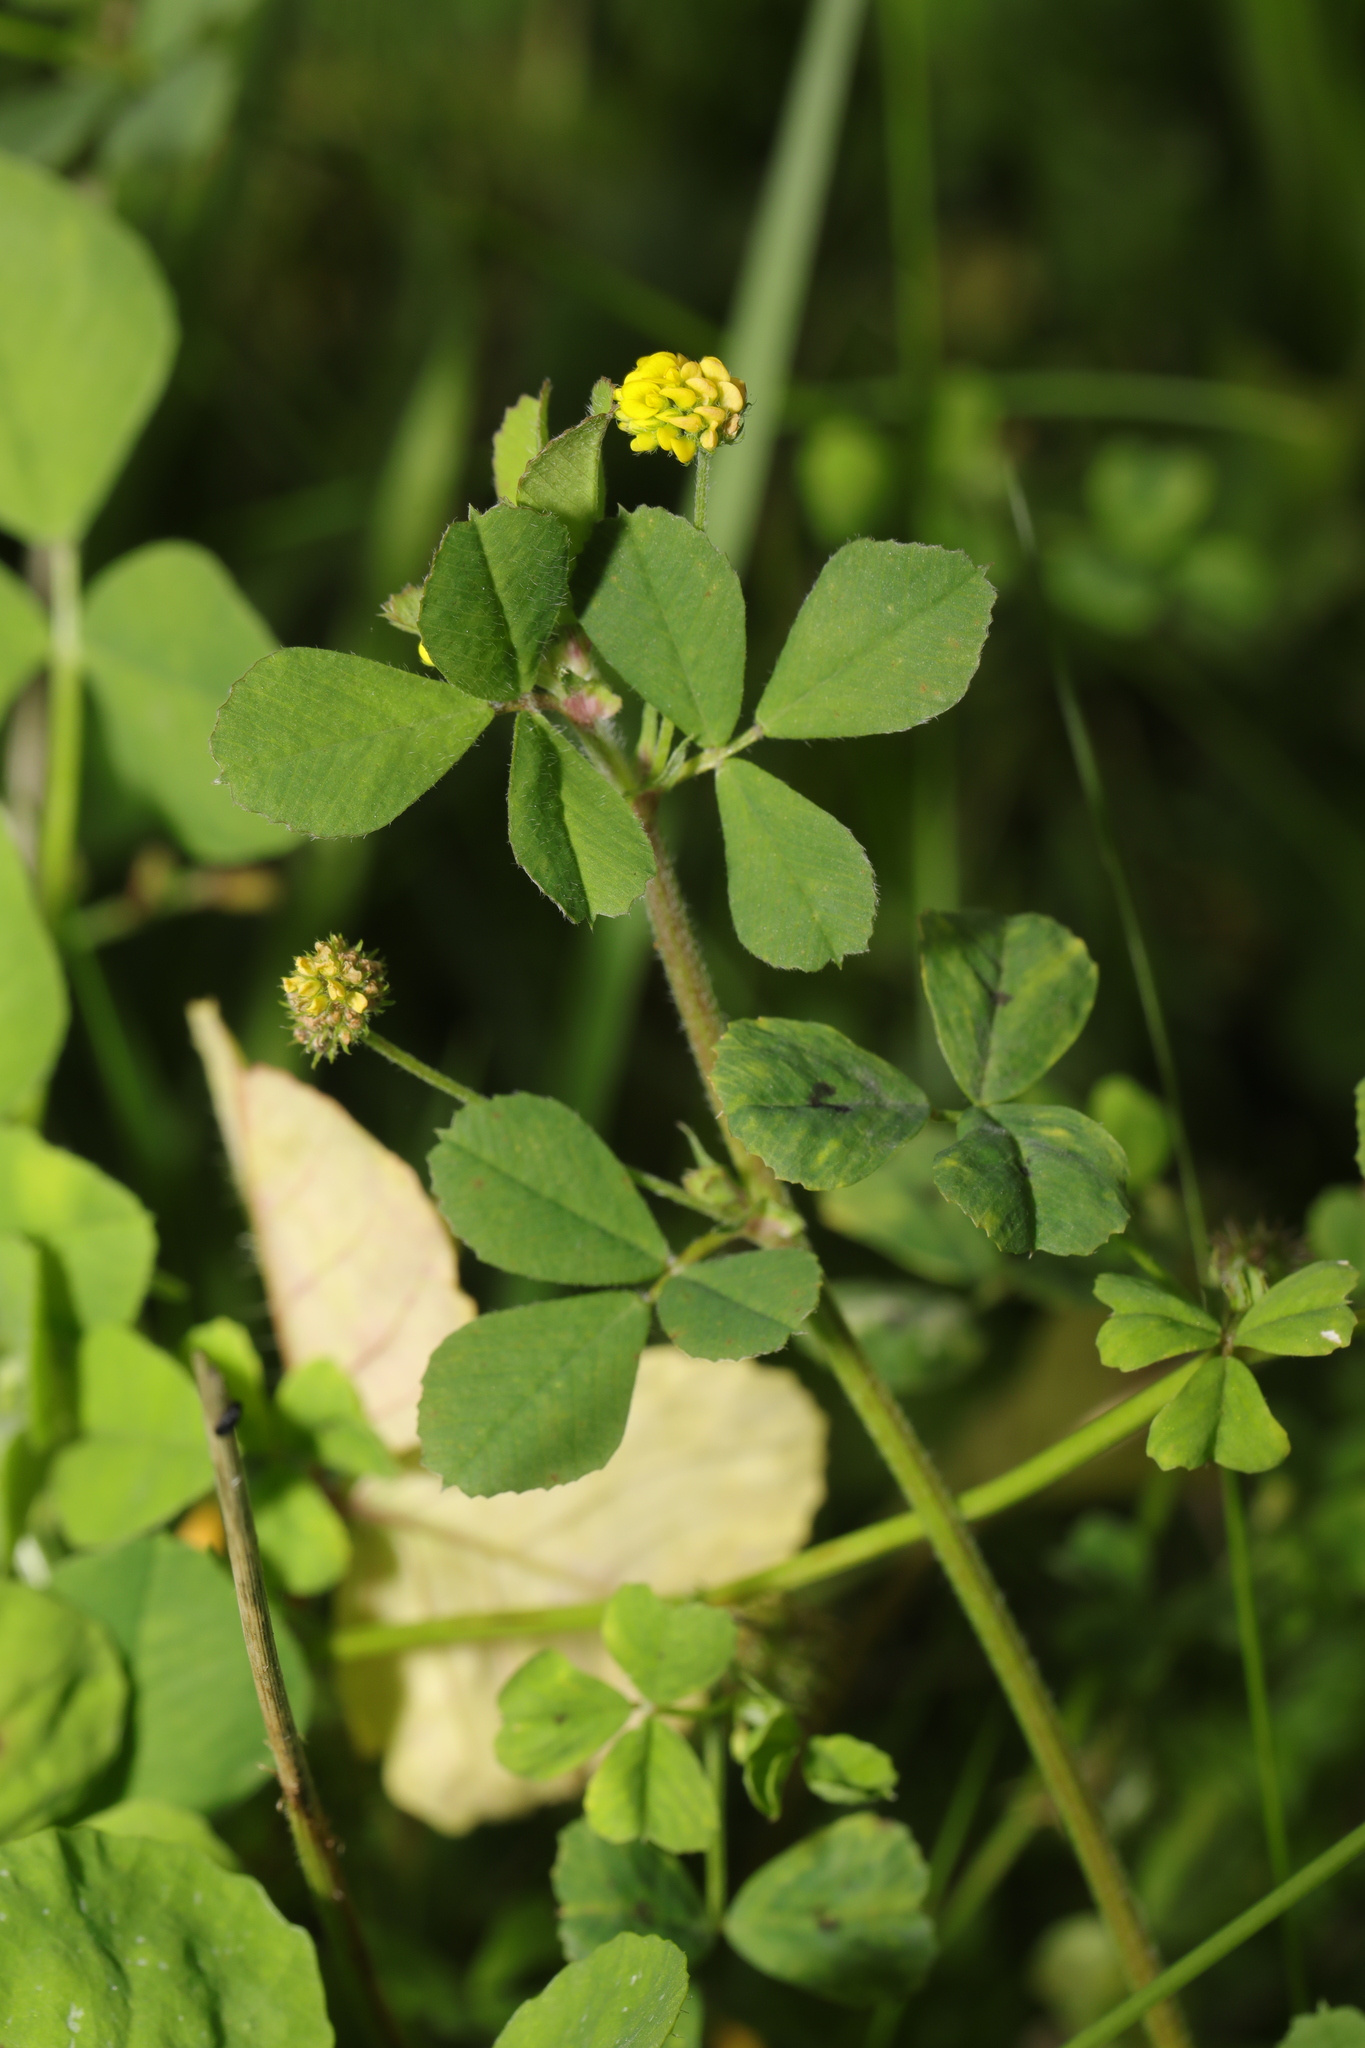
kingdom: Plantae
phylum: Tracheophyta
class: Magnoliopsida
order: Fabales
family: Fabaceae
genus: Medicago
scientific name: Medicago lupulina
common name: Black medick
